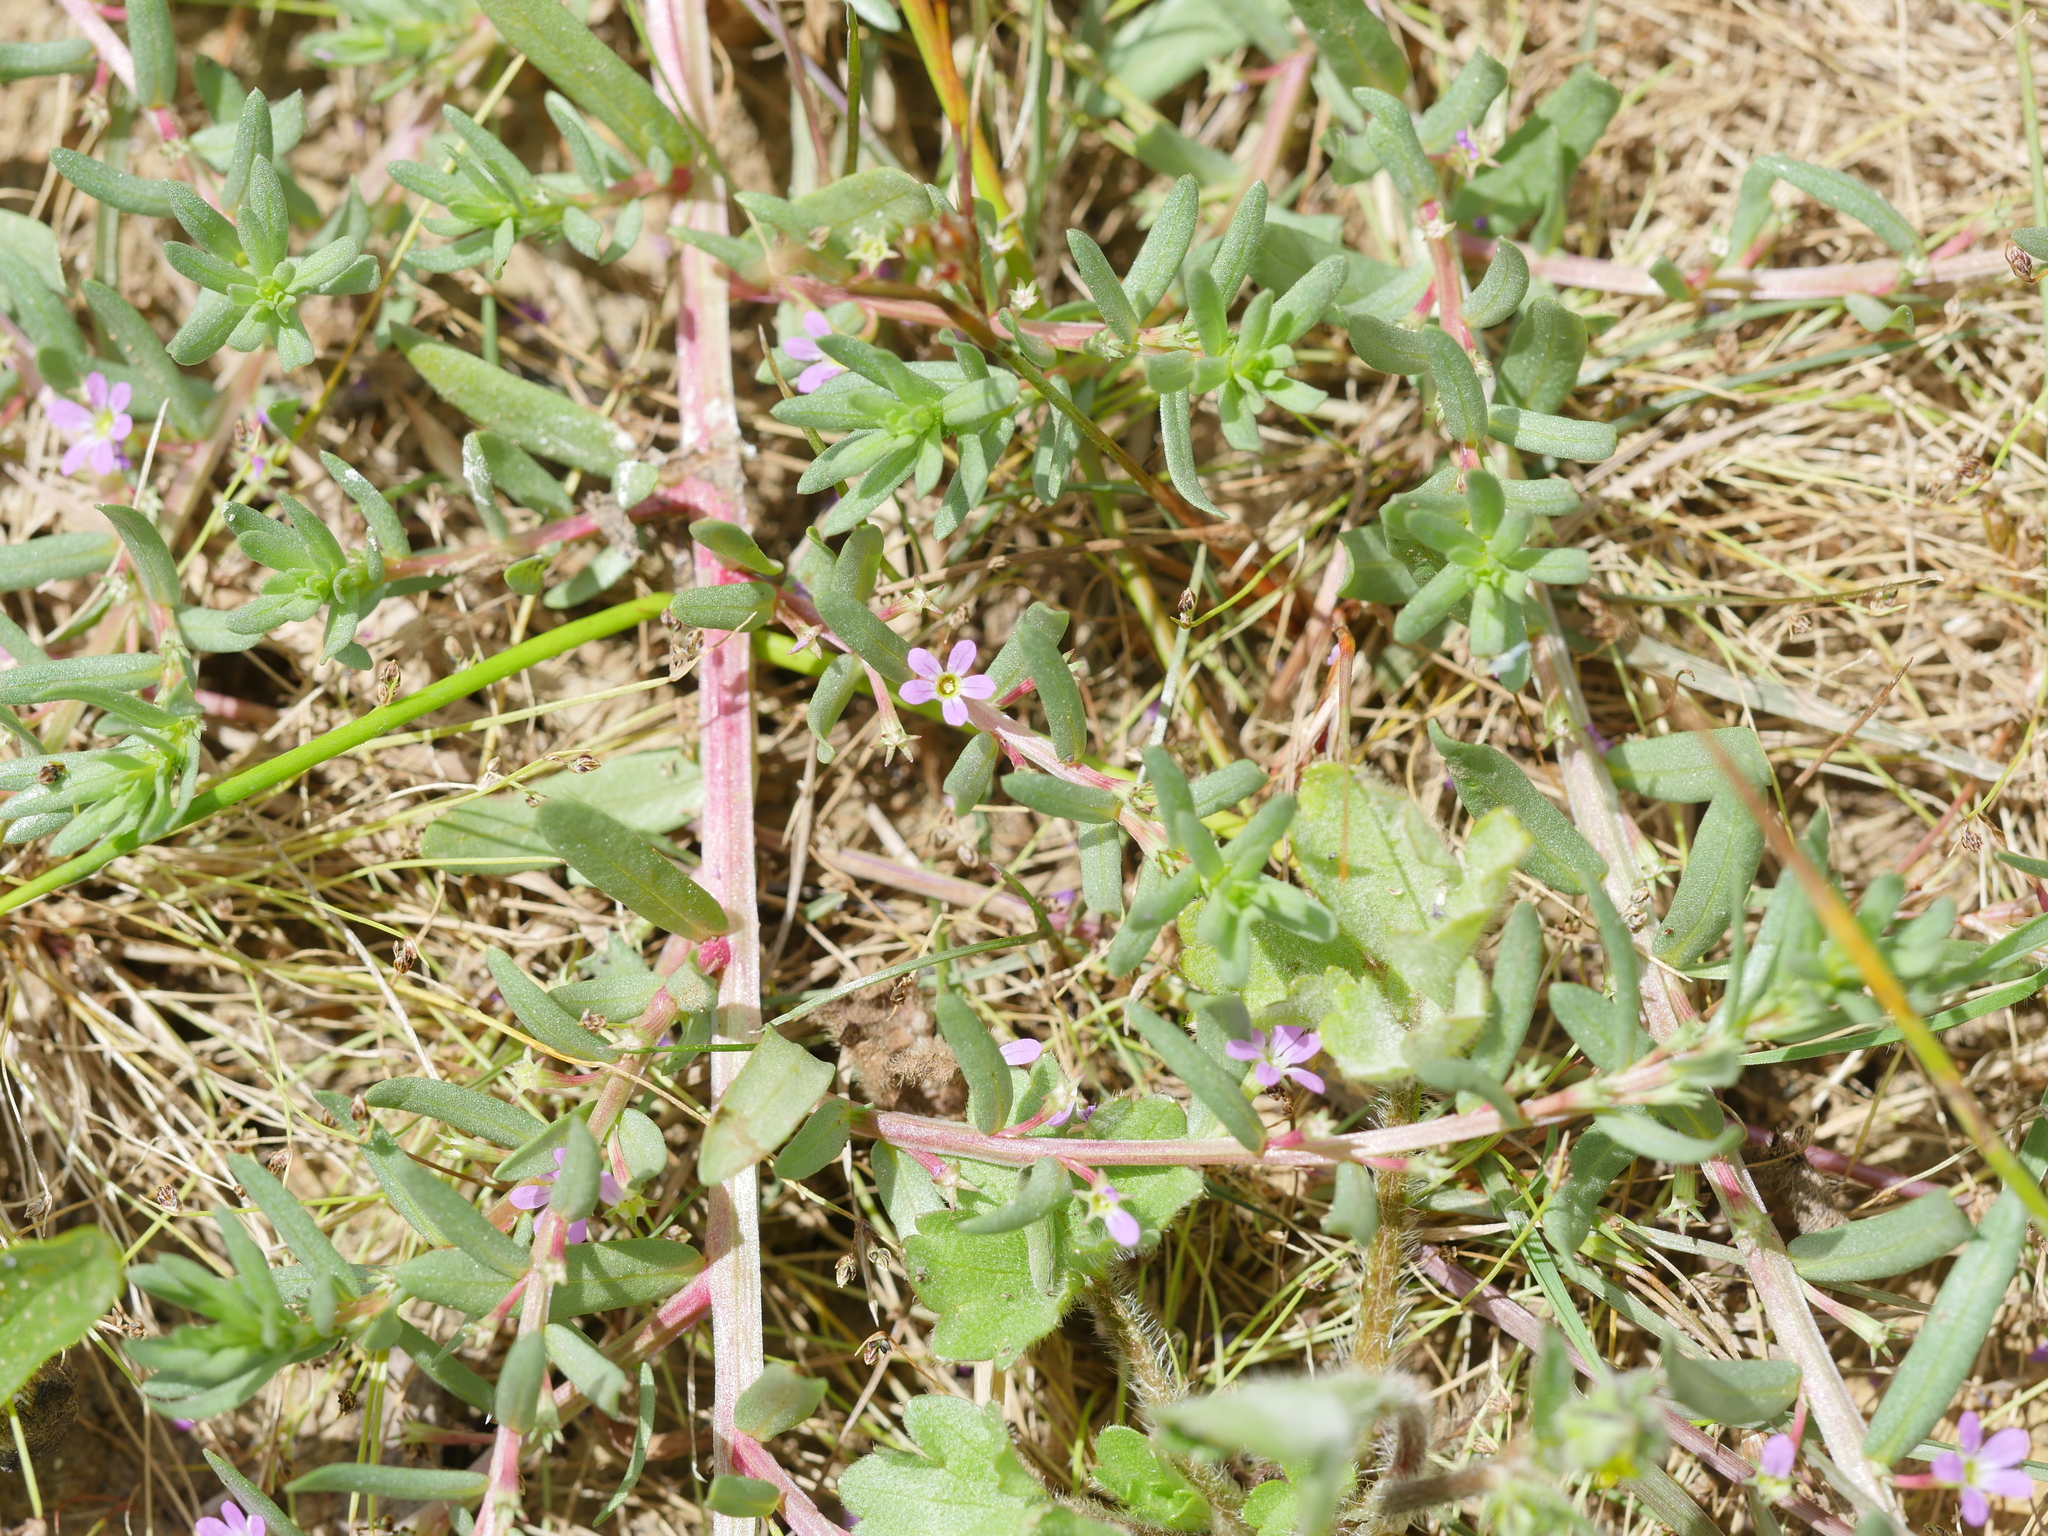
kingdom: Plantae
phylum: Tracheophyta
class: Magnoliopsida
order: Myrtales
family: Lythraceae
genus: Lythrum
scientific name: Lythrum hyssopifolia
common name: Grass-poly
